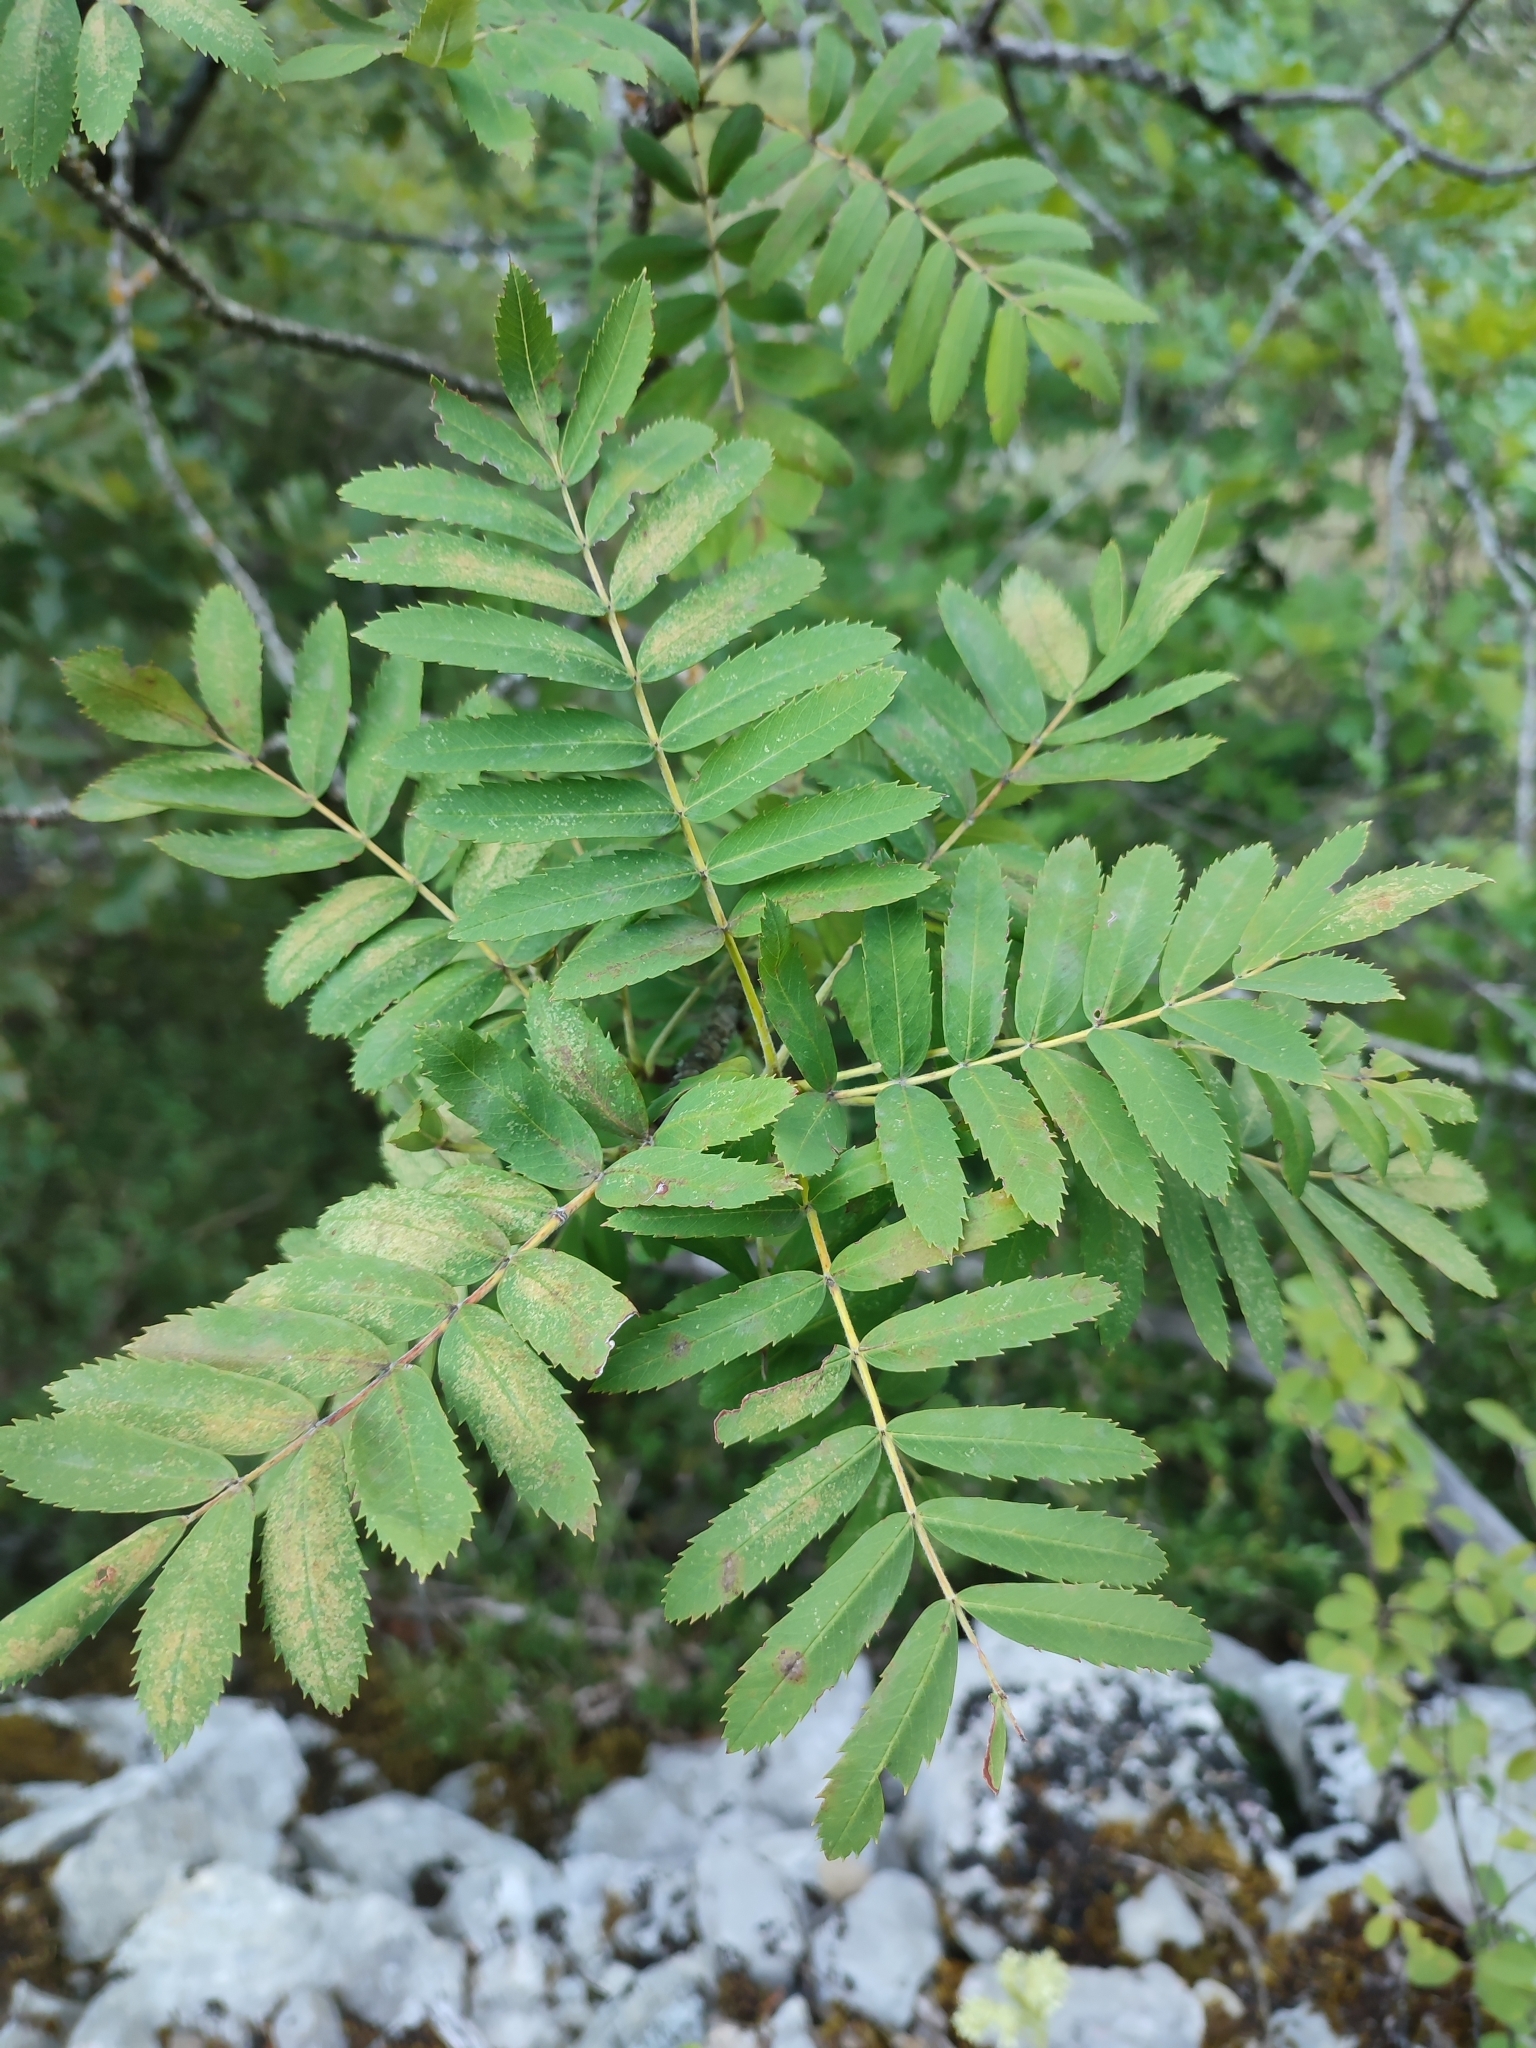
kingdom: Plantae
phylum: Tracheophyta
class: Magnoliopsida
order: Rosales
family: Rosaceae
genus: Sorbus
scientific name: Sorbus aucuparia
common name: Rowan
